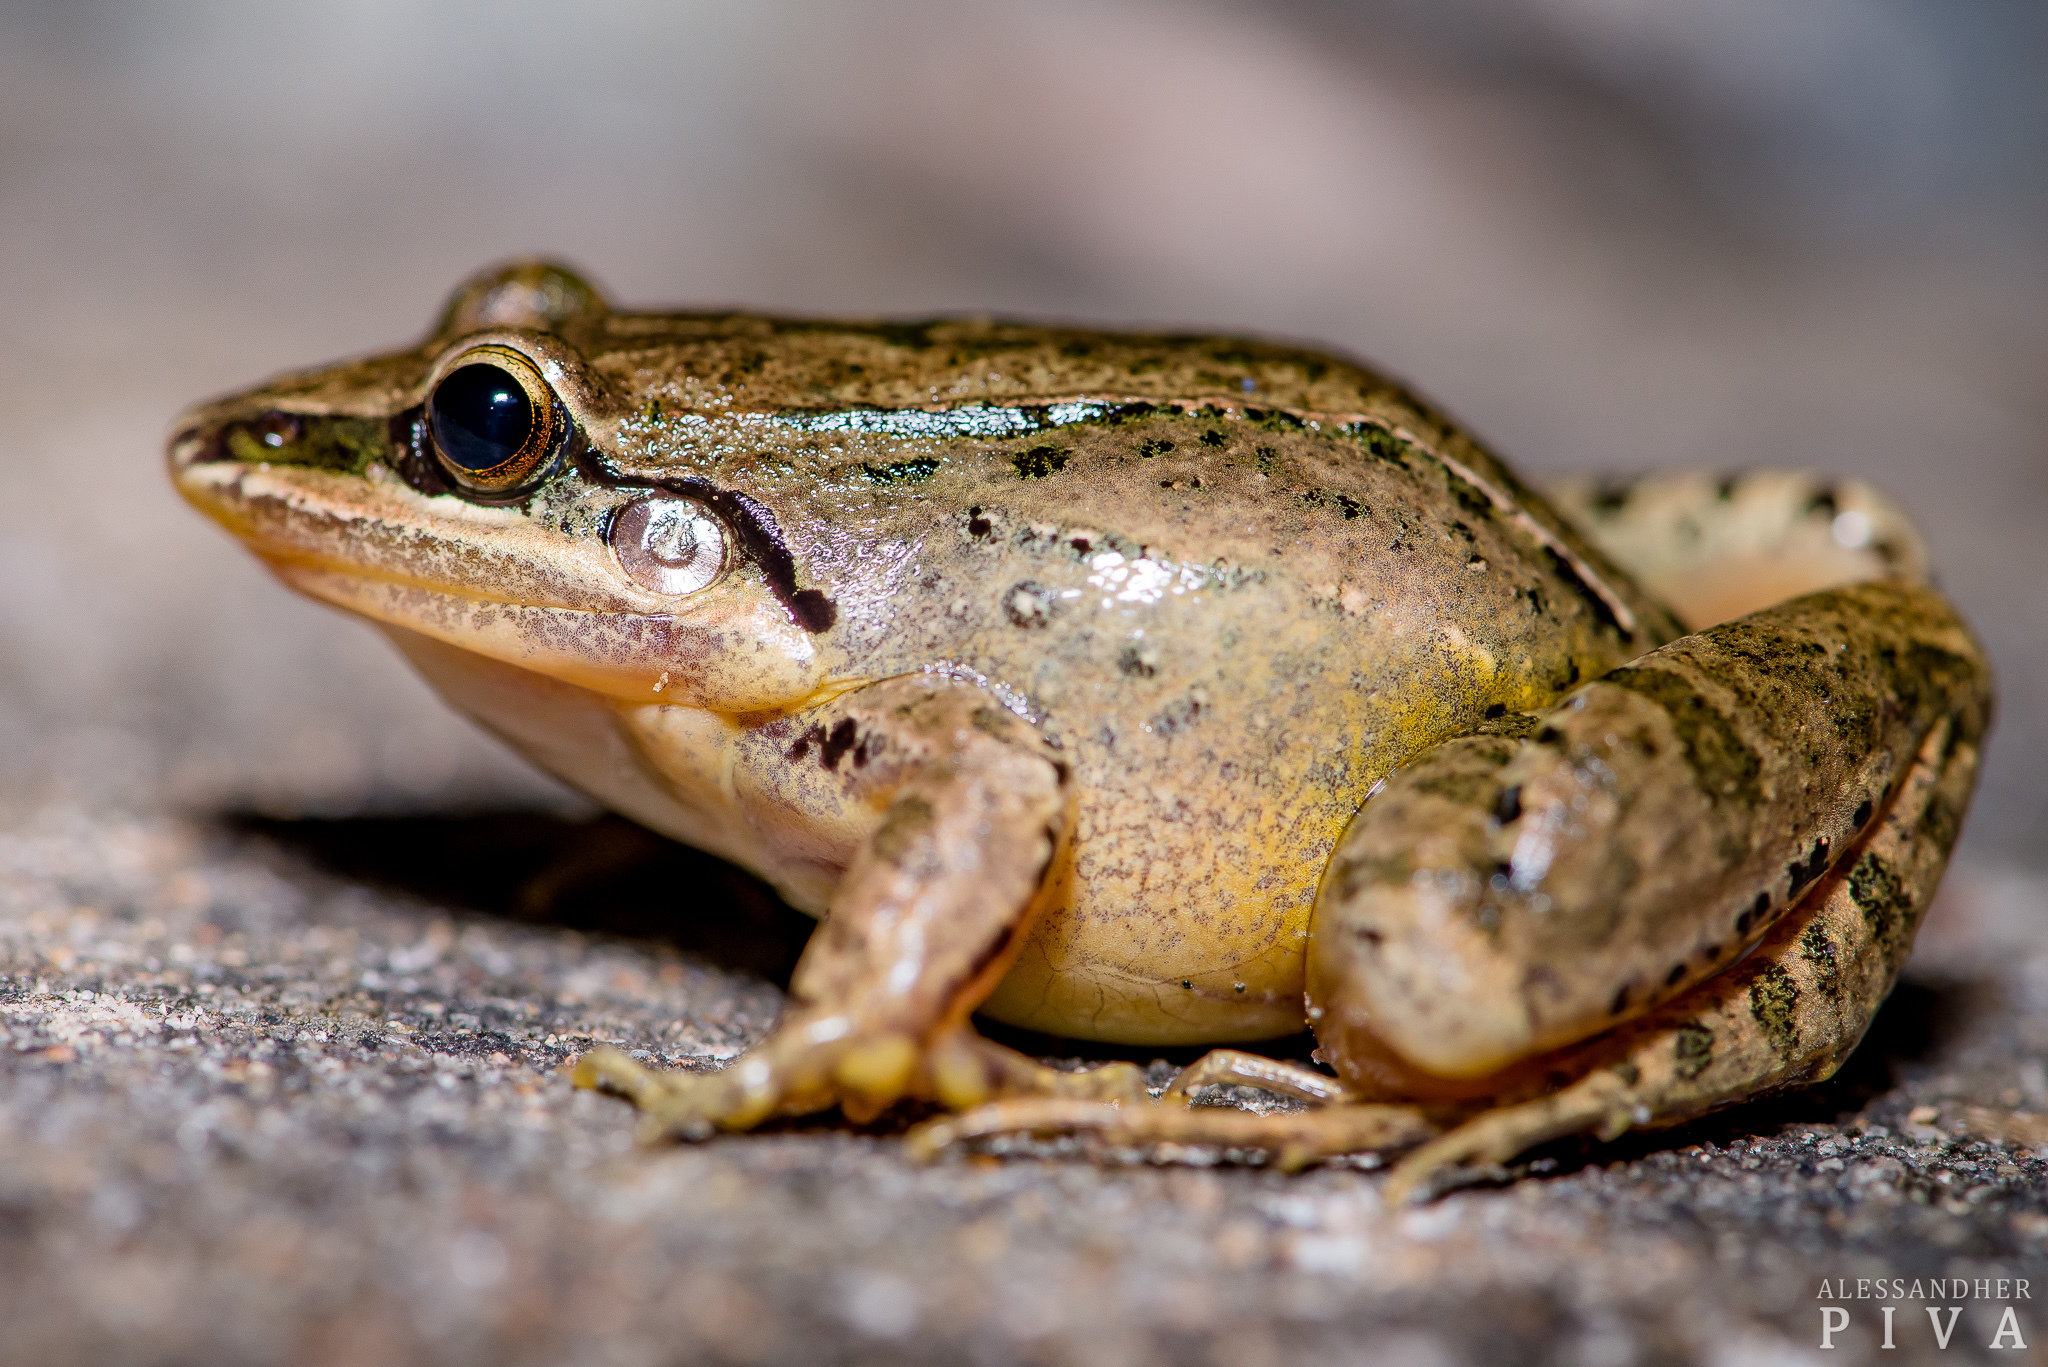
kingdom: Animalia
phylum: Chordata
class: Amphibia
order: Anura
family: Leptodactylidae
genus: Leptodactylus
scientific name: Leptodactylus notoaktites
